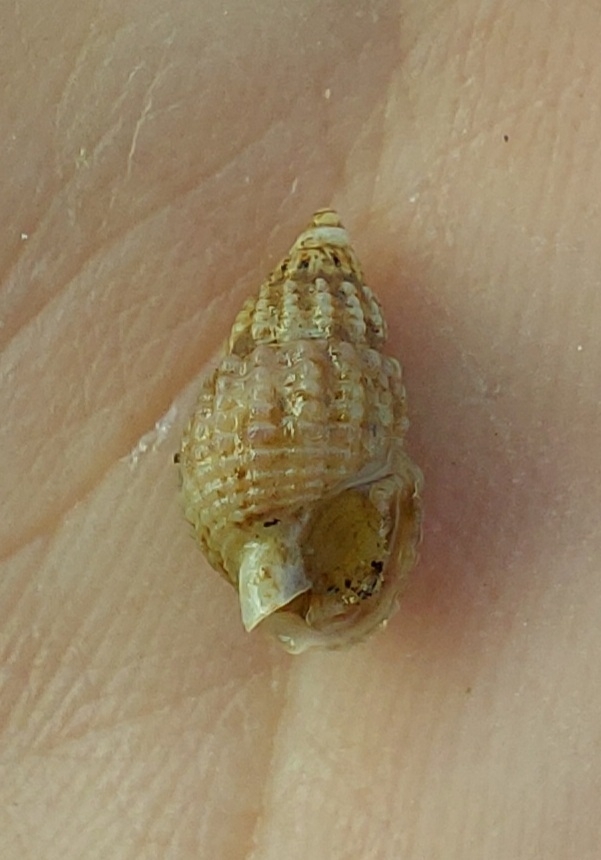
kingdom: Animalia
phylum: Mollusca
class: Gastropoda
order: Neogastropoda
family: Nassariidae
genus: Ilyanassa
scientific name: Ilyanassa trivittata
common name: Three-line mudsnail
